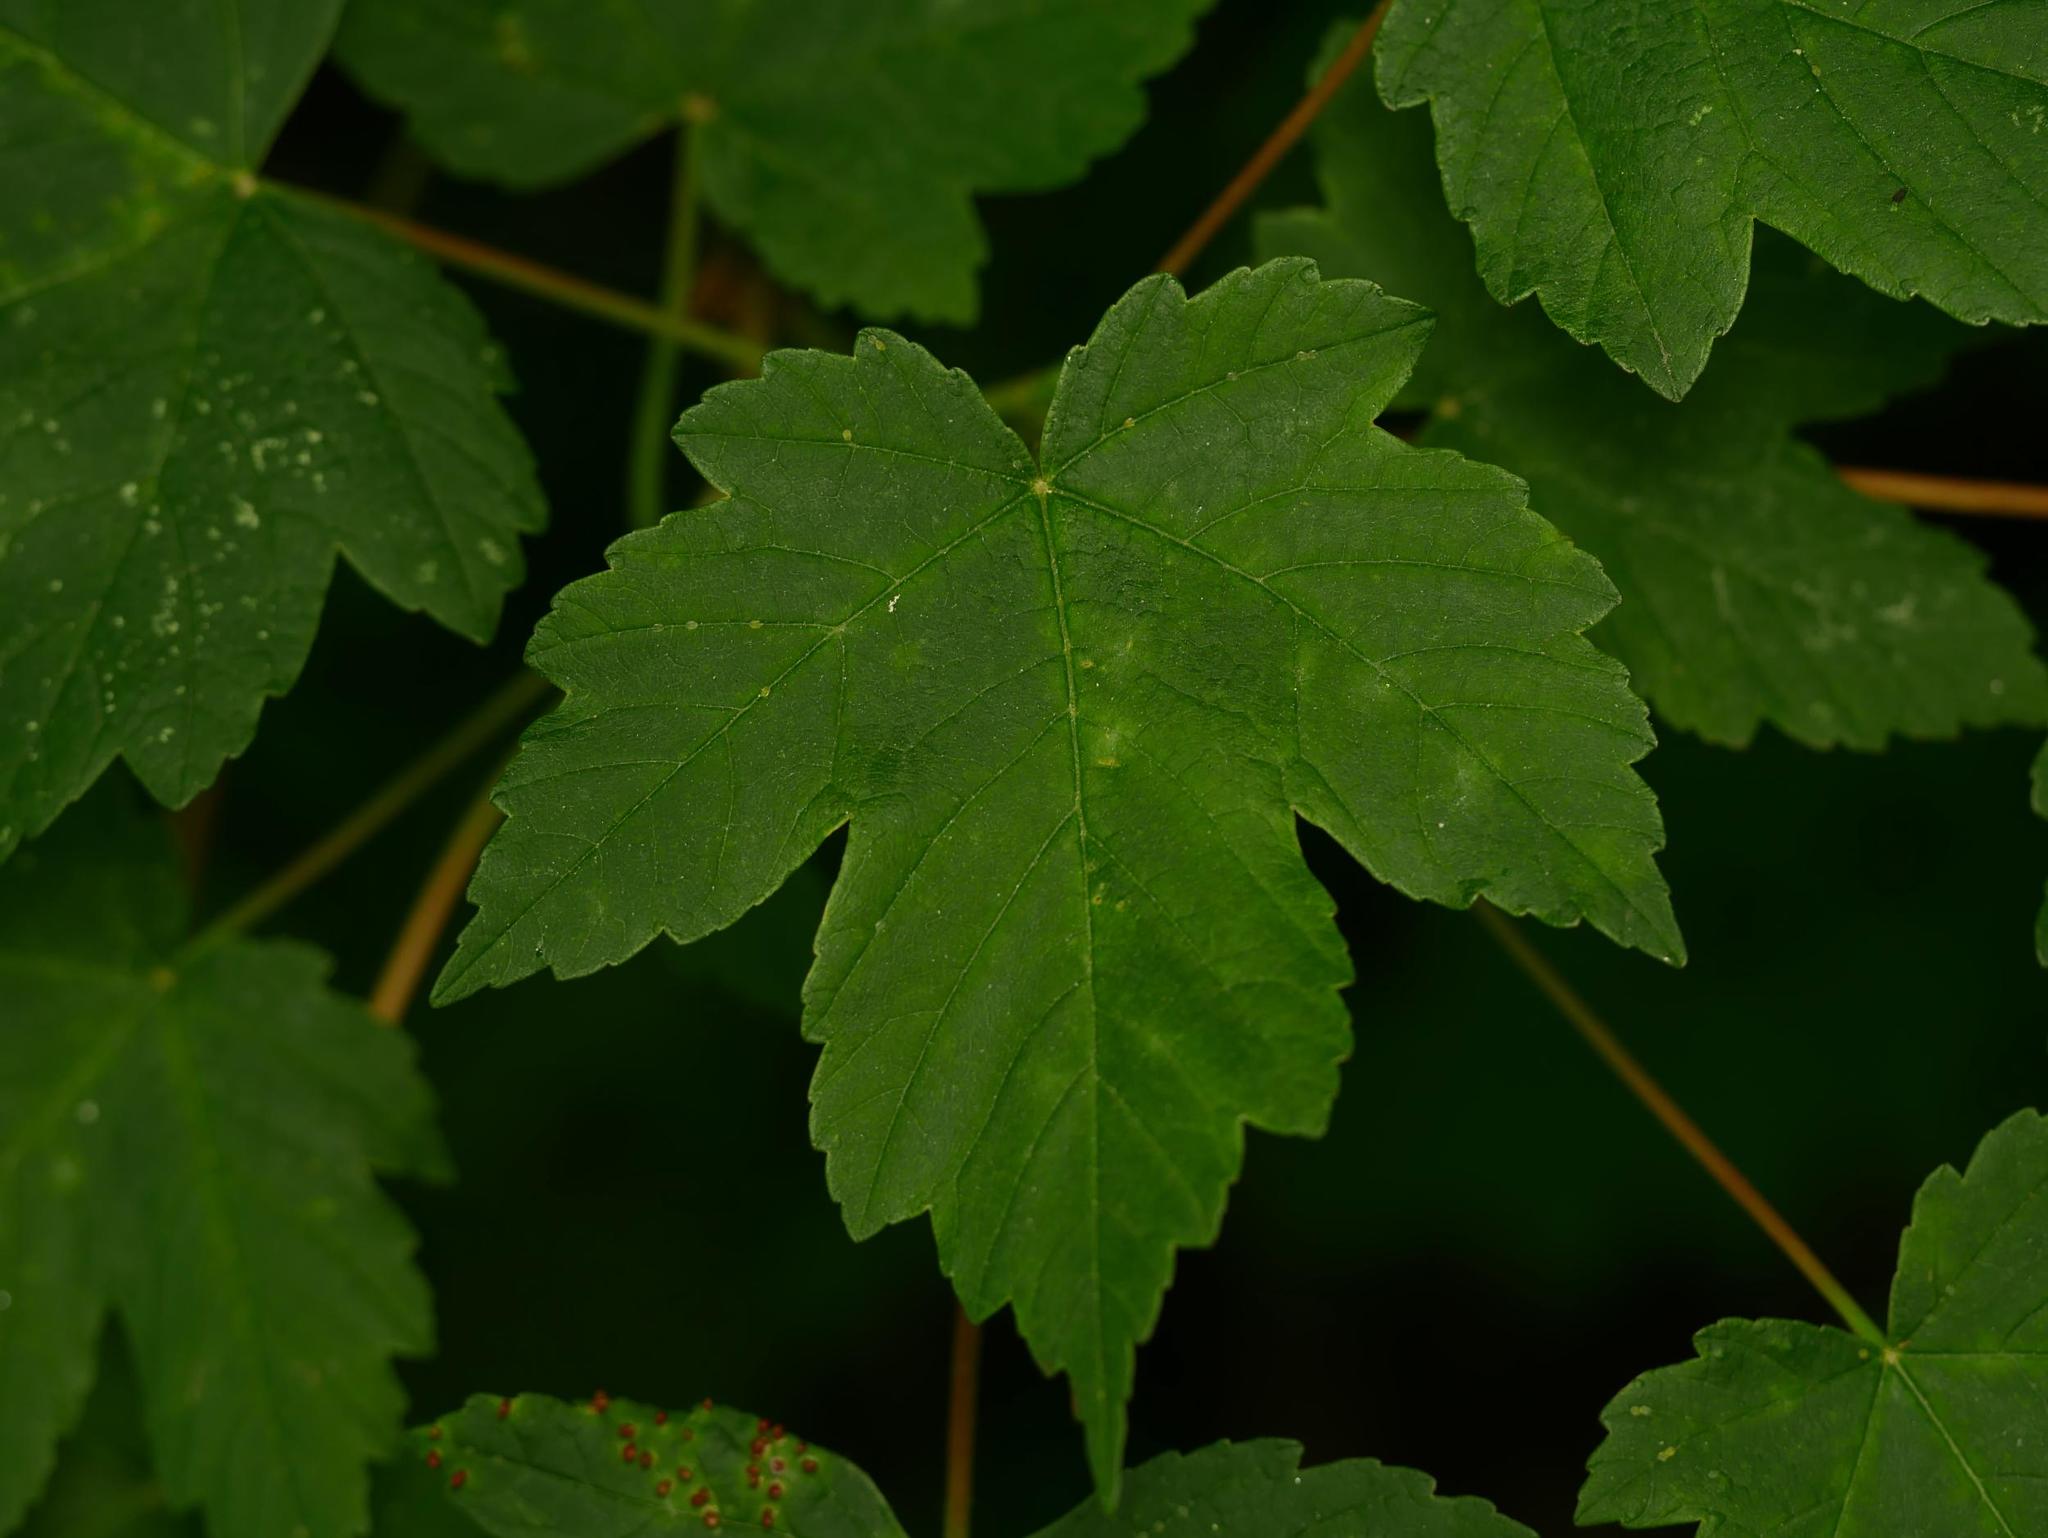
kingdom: Plantae
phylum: Tracheophyta
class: Magnoliopsida
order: Sapindales
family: Sapindaceae
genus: Acer
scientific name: Acer pseudoplatanus
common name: Sycamore
